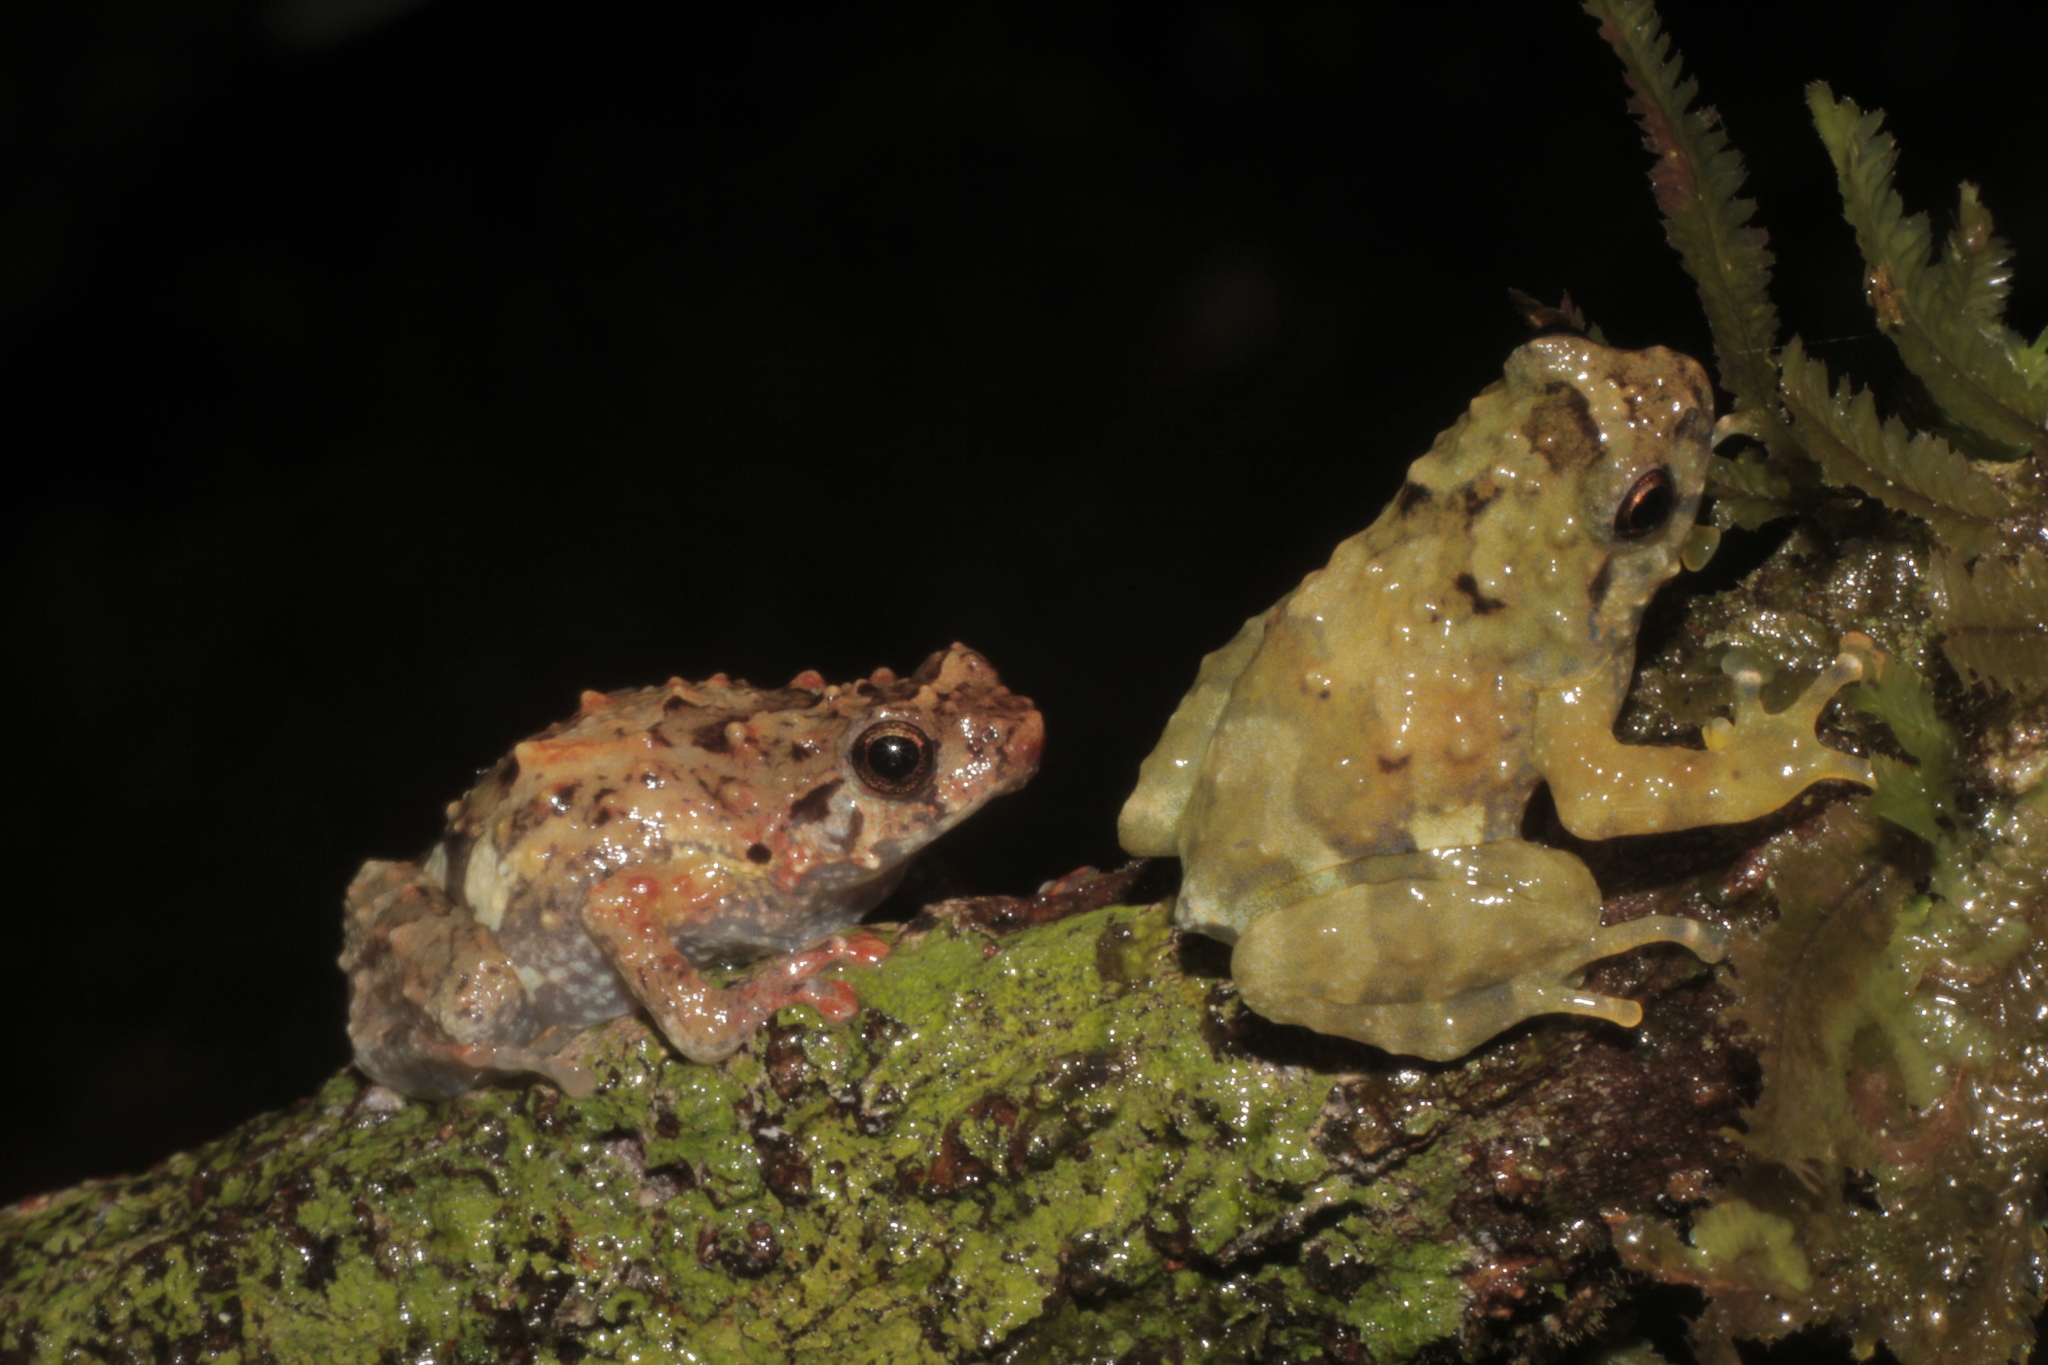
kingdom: Animalia
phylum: Chordata
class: Amphibia
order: Anura
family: Microhylidae
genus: Cophyla
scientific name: Cophyla barbouri
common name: Barbour's giant treefrog
